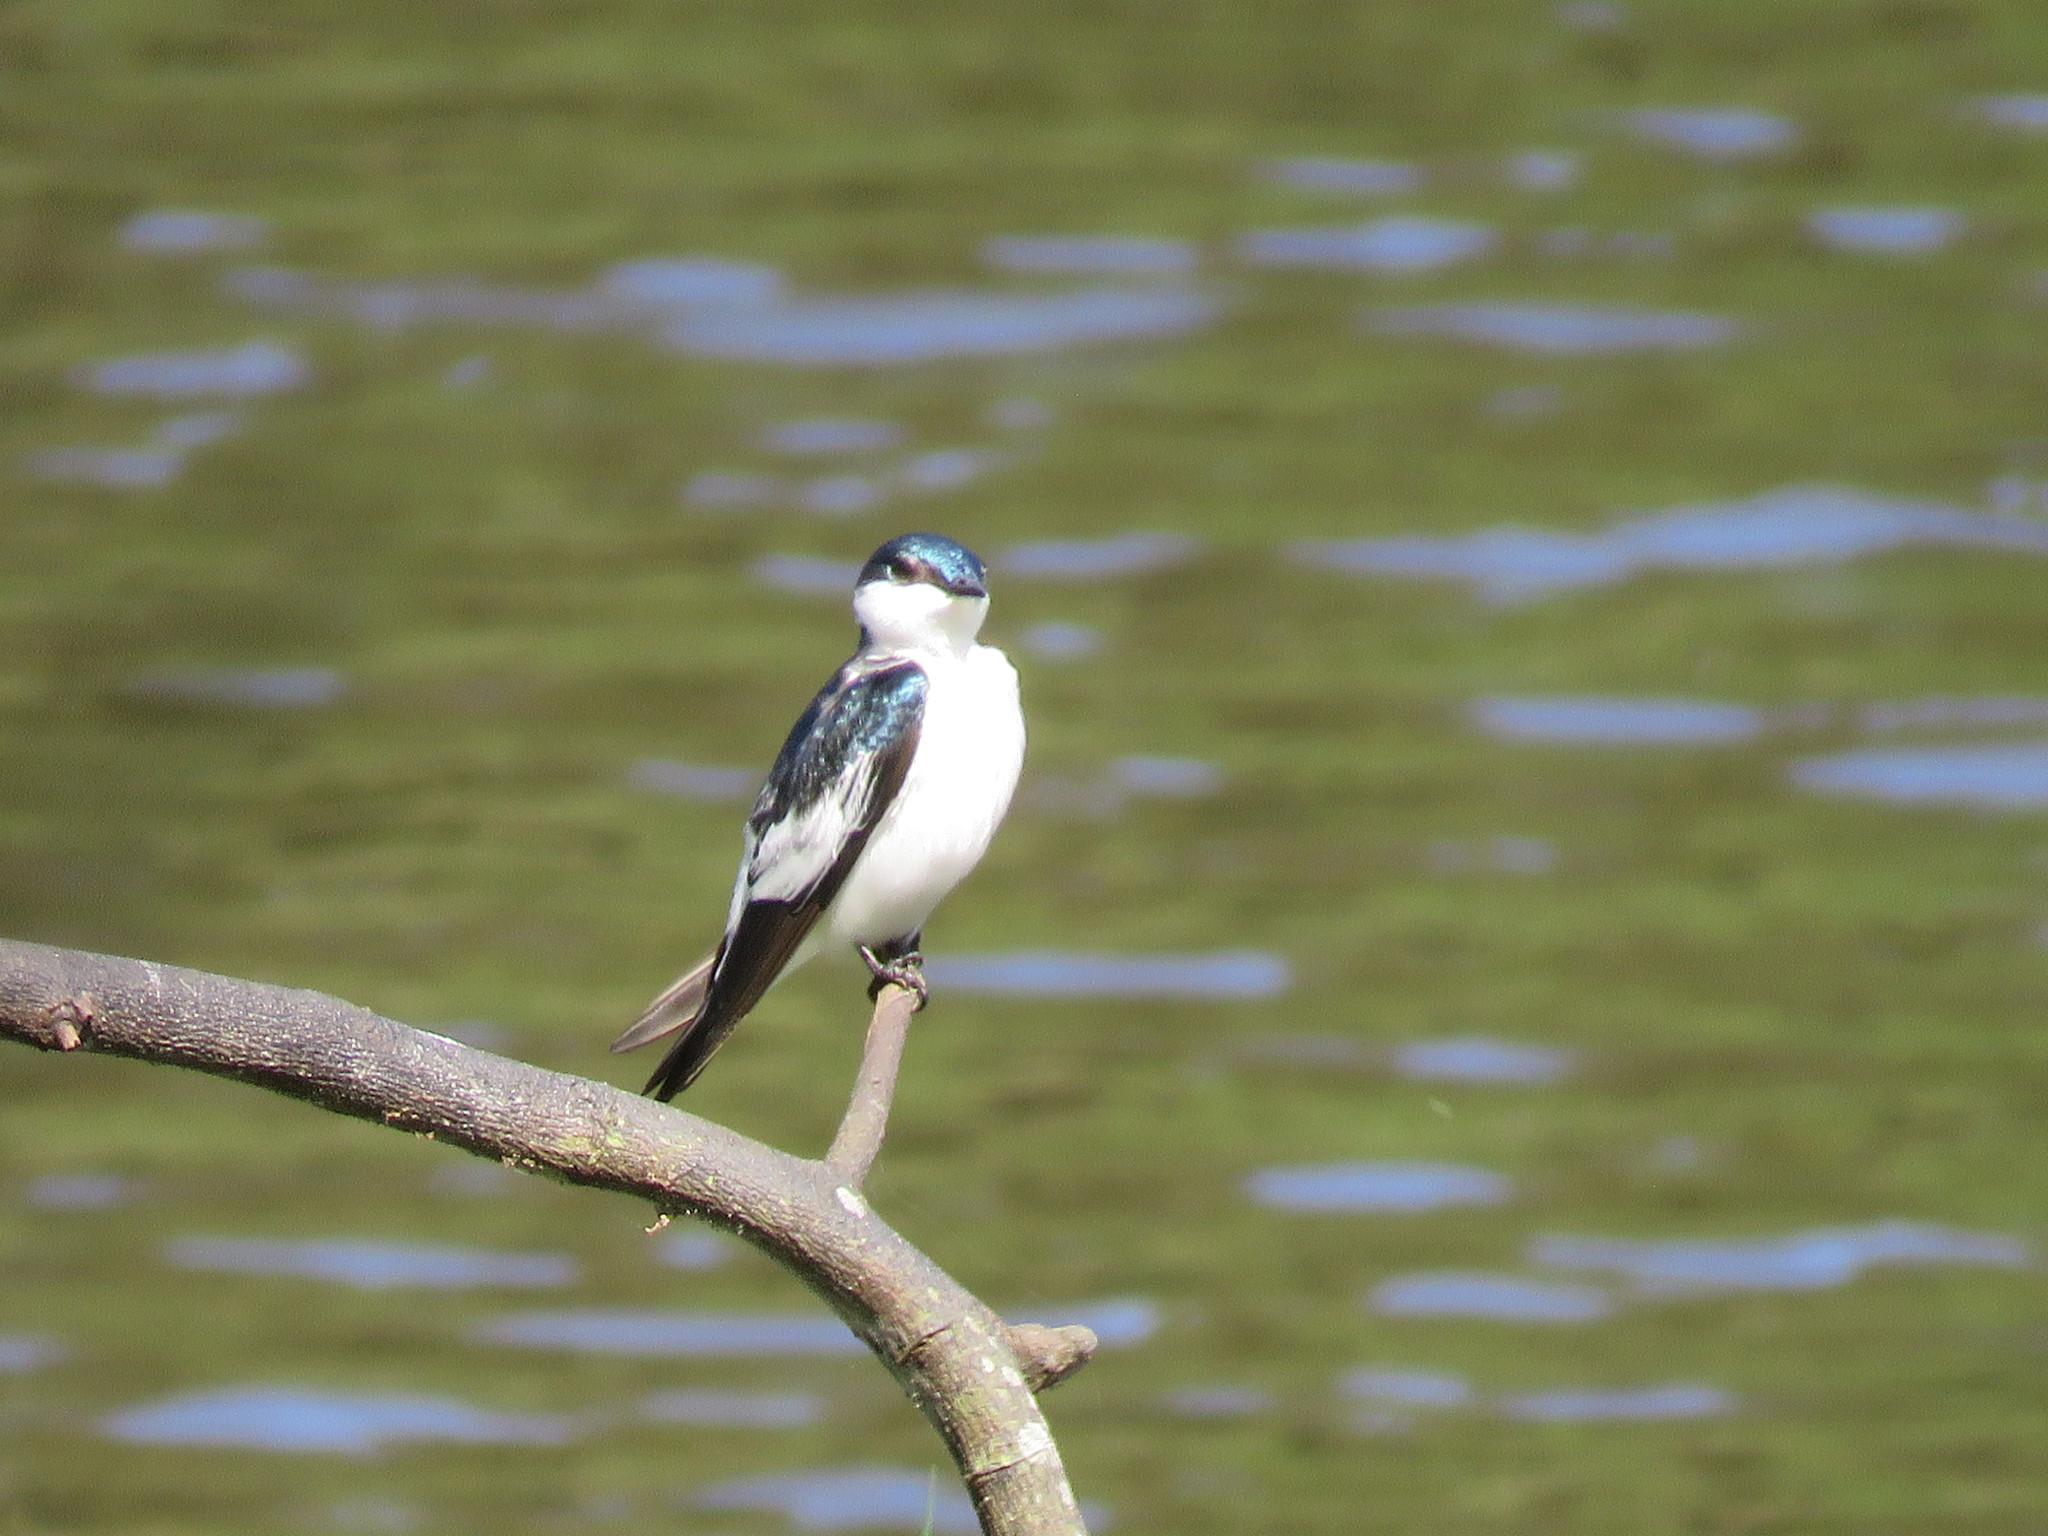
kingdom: Animalia
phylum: Chordata
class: Aves
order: Passeriformes
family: Hirundinidae
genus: Tachycineta
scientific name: Tachycineta albiventer
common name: White-winged swallow
